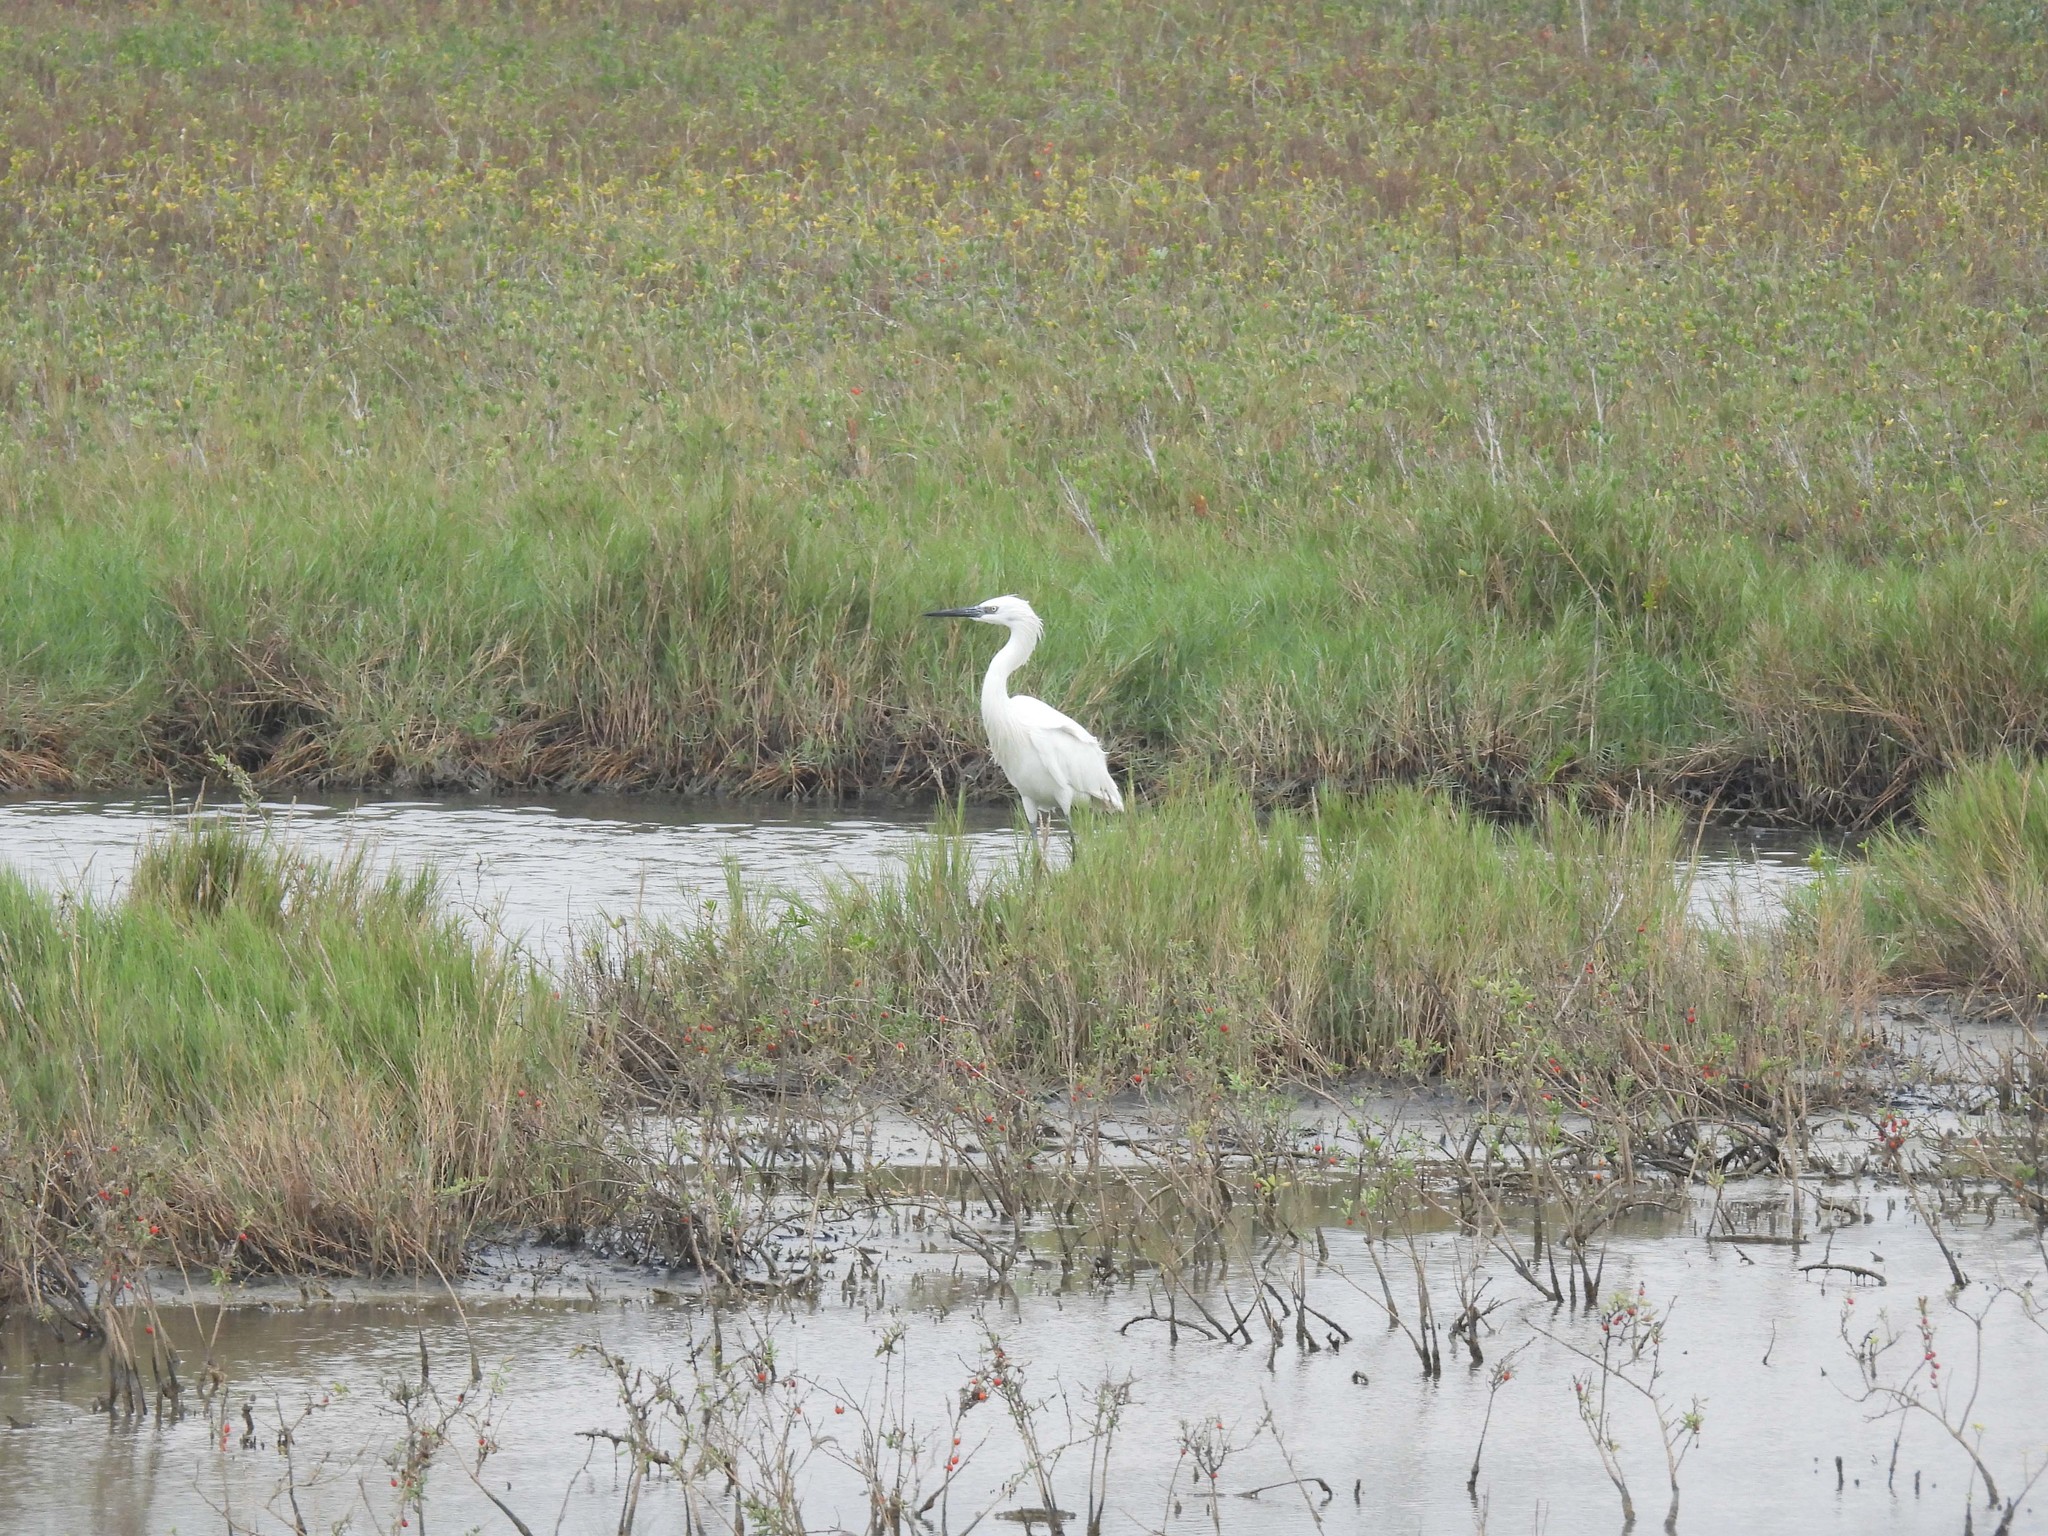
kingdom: Animalia
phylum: Chordata
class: Aves
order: Pelecaniformes
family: Ardeidae
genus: Egretta
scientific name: Egretta rufescens
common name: Reddish egret
